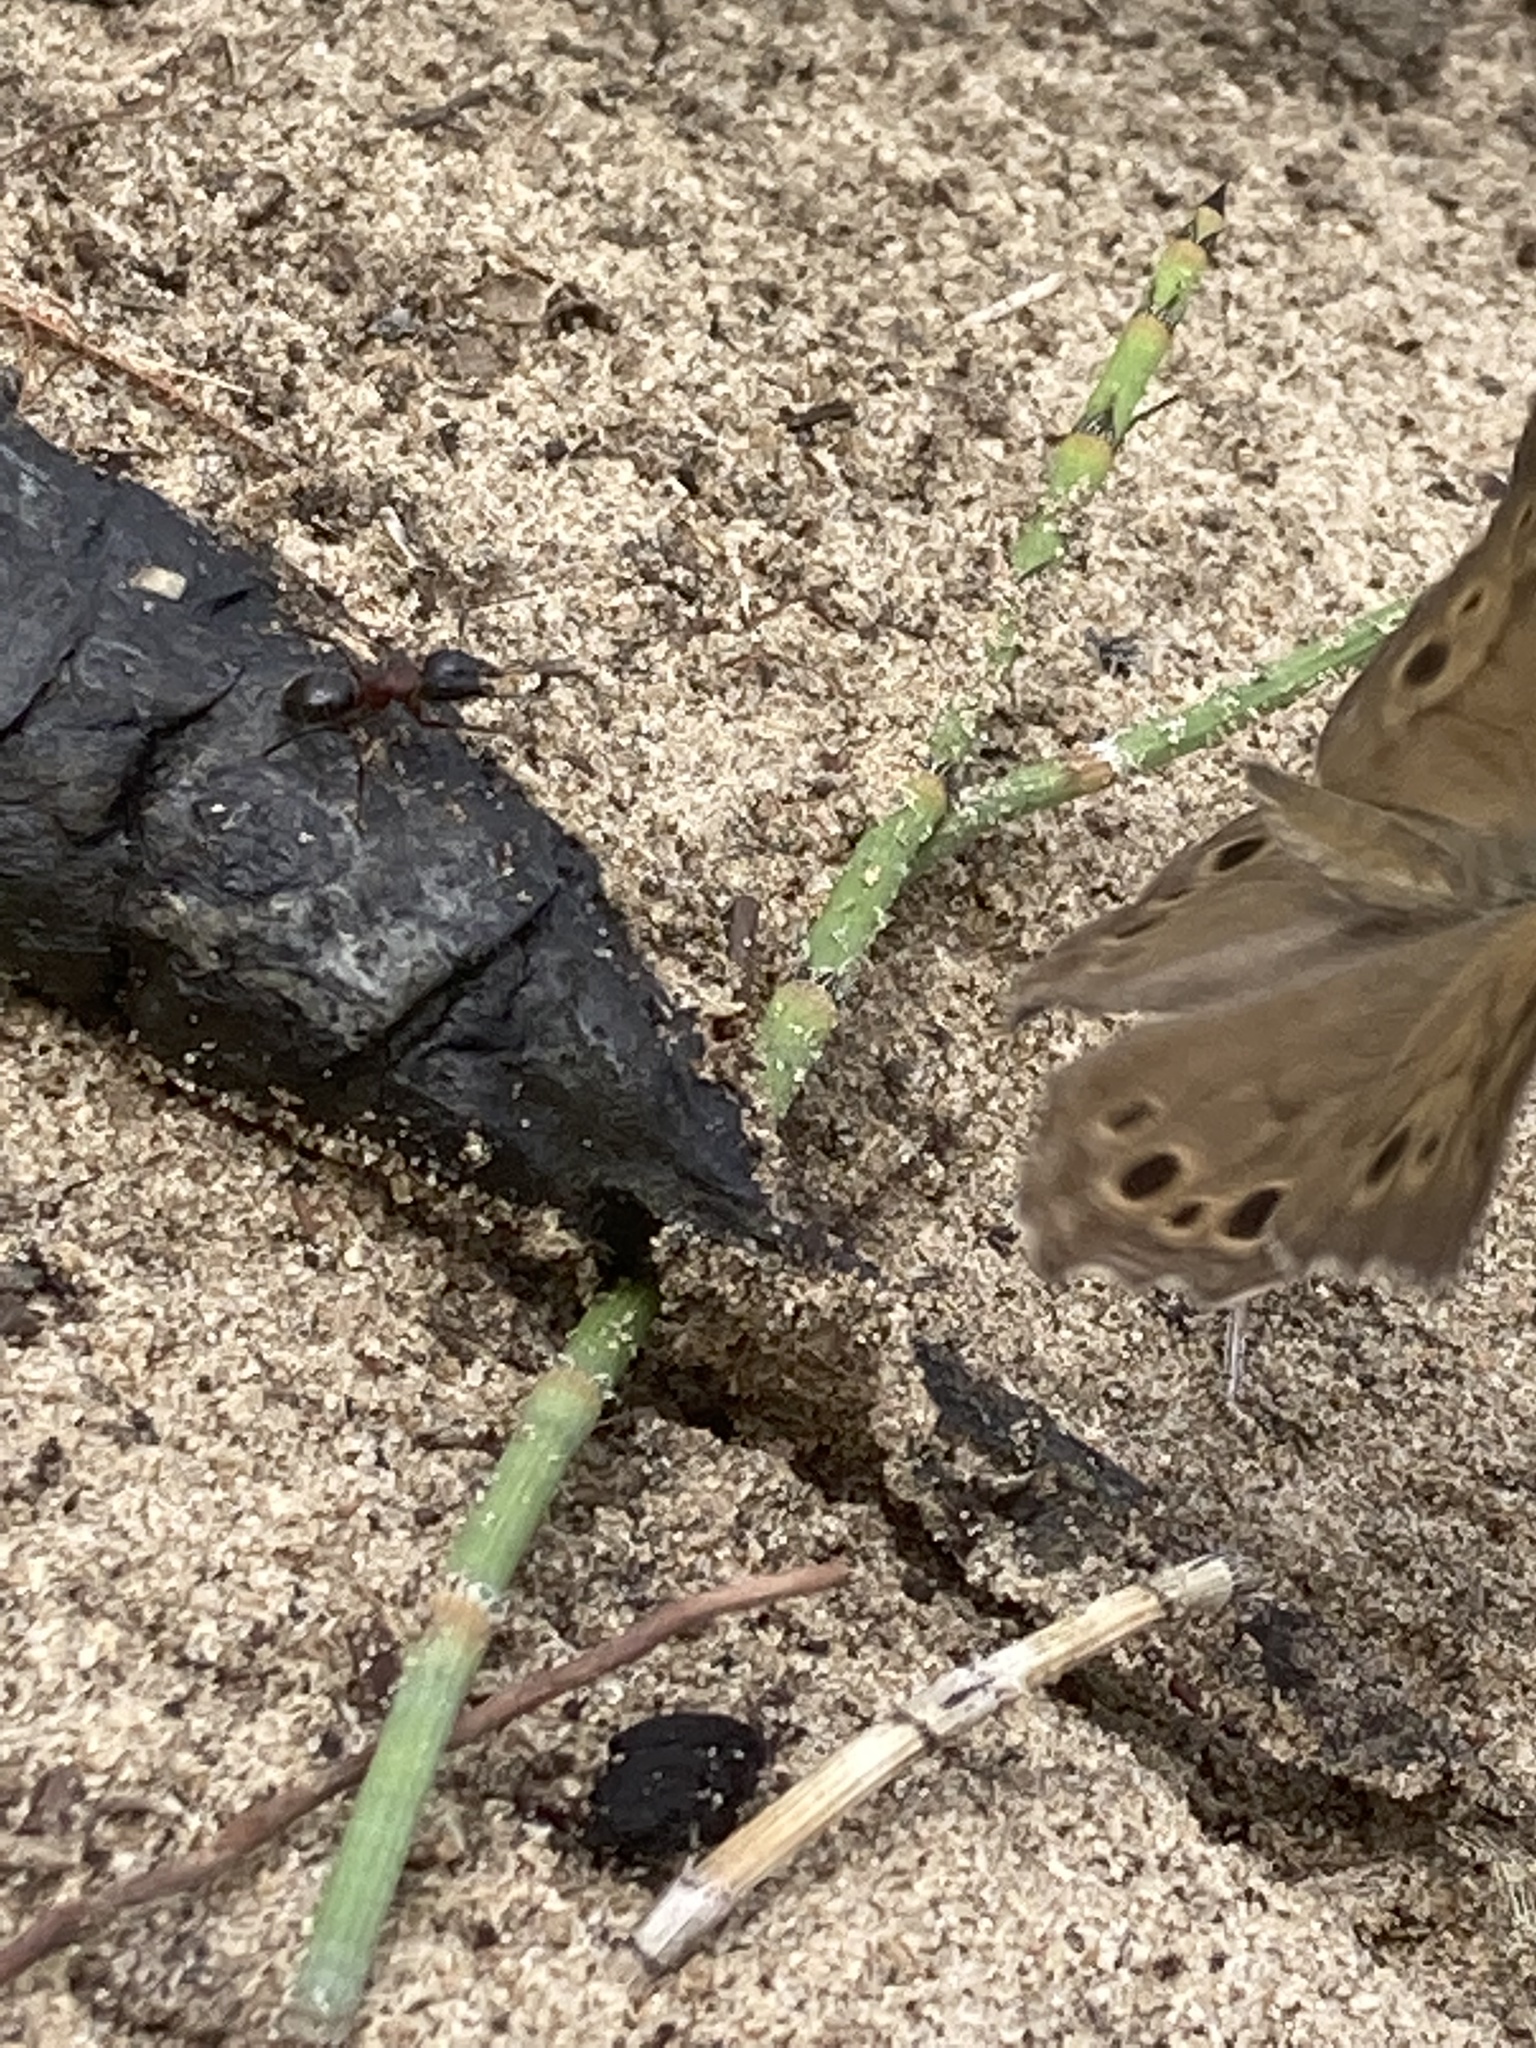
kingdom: Animalia
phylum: Arthropoda
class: Insecta
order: Lepidoptera
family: Nymphalidae
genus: Lethe
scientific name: Lethe anthedon
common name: Northern pearly-eye
